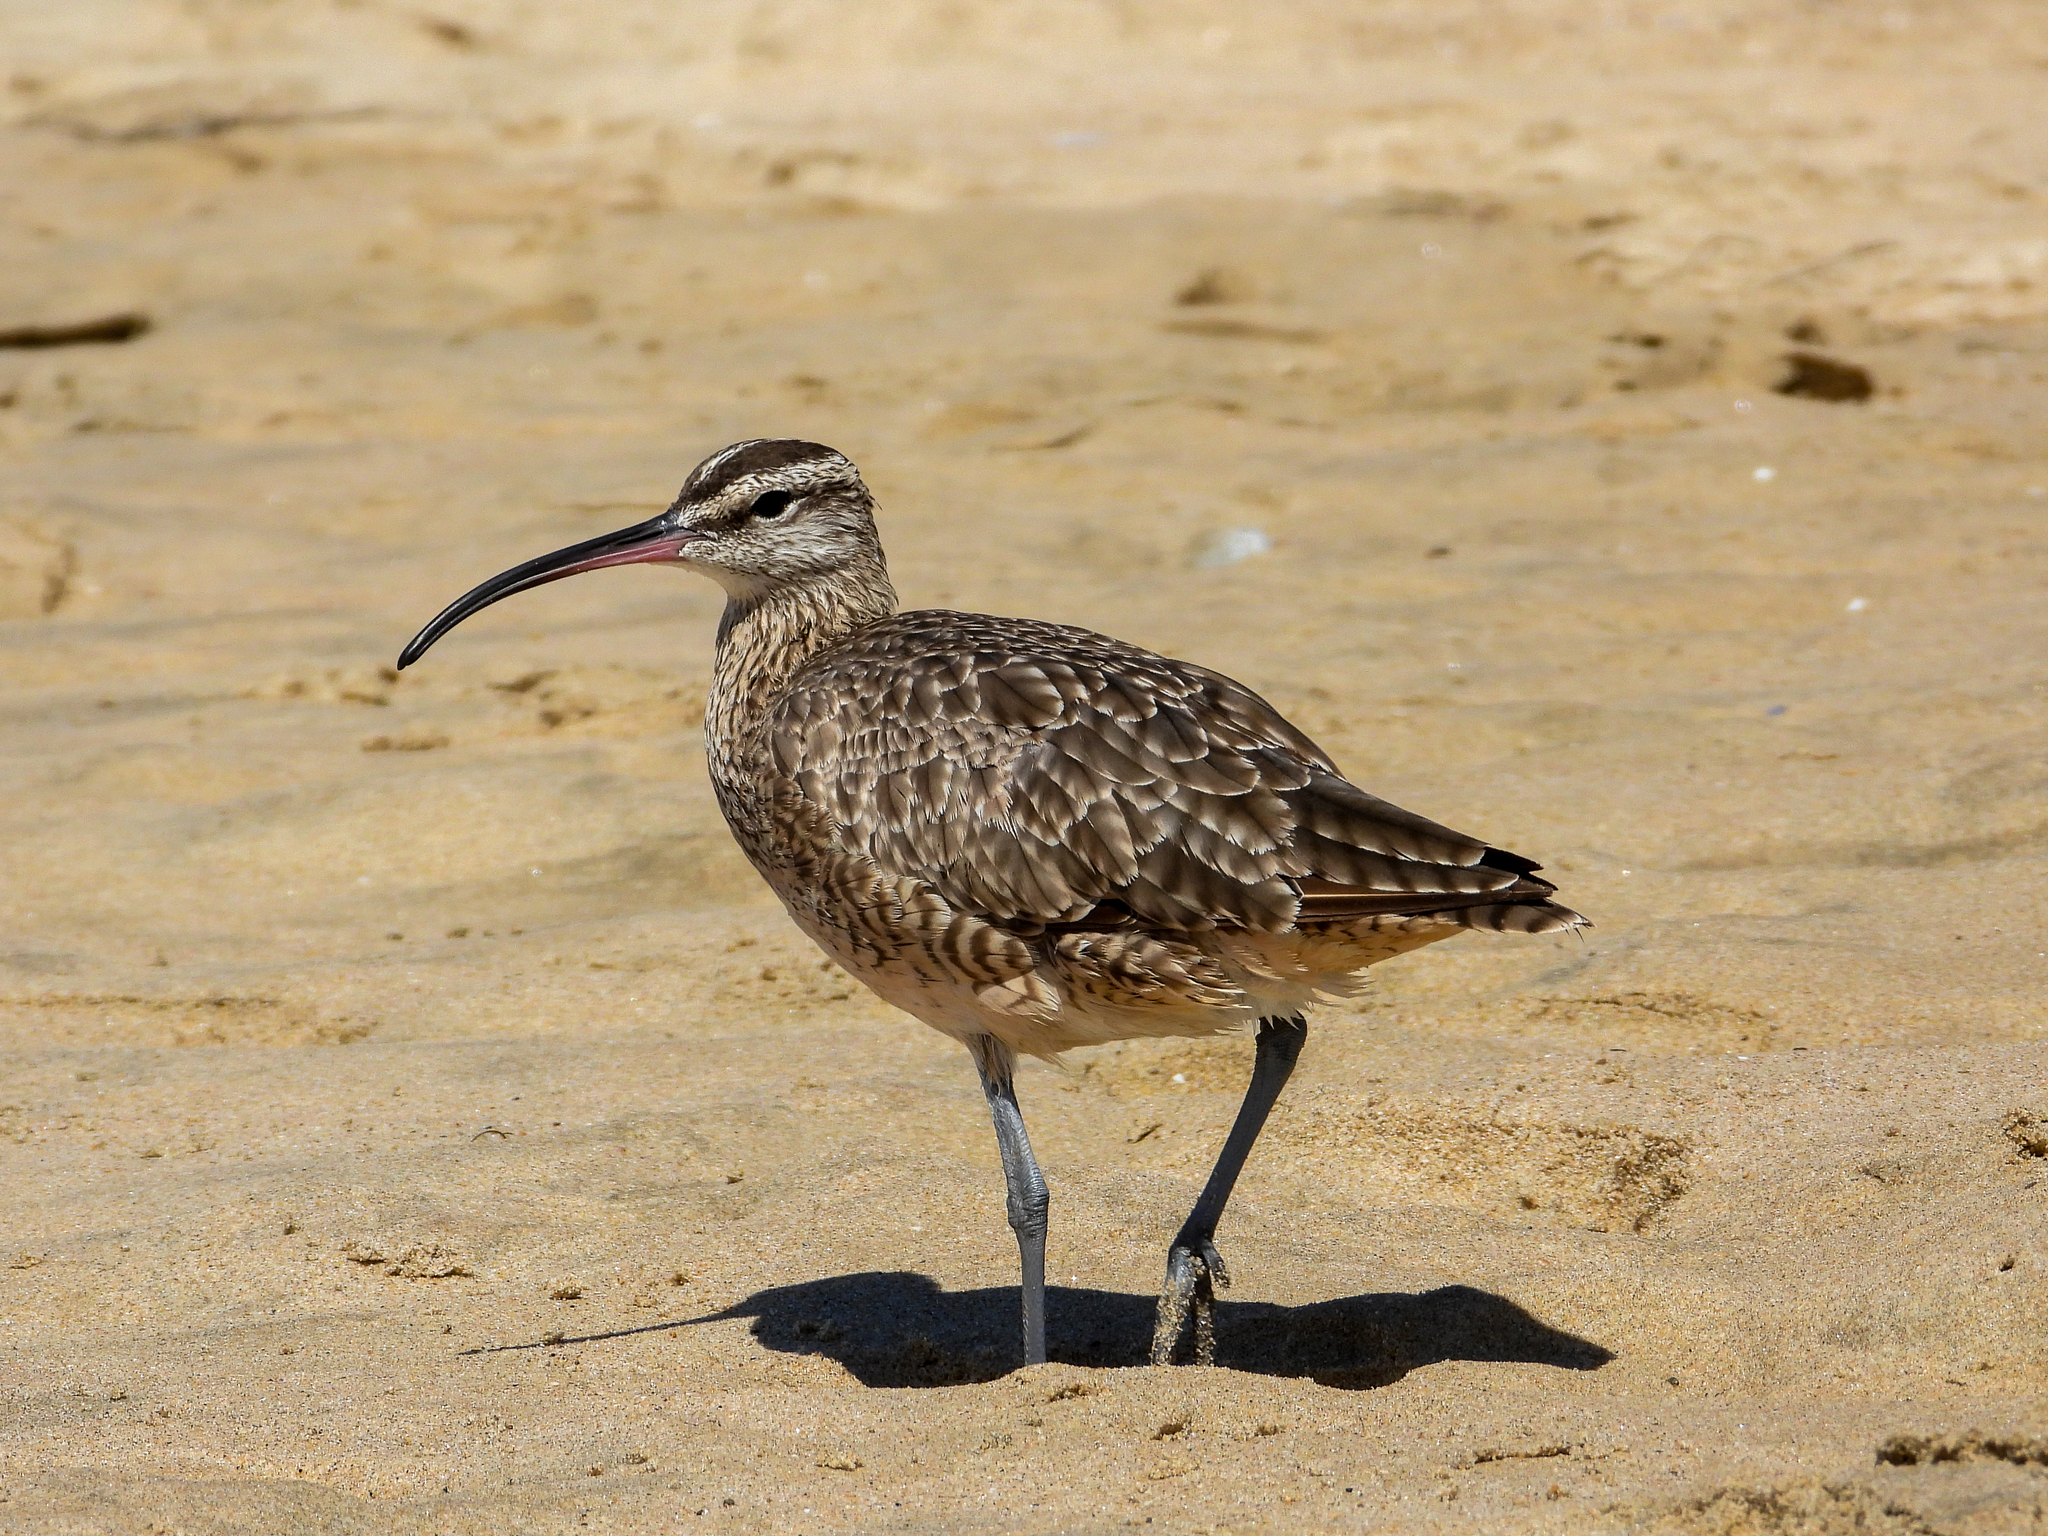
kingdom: Animalia
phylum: Chordata
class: Aves
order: Charadriiformes
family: Scolopacidae
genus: Numenius
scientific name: Numenius phaeopus
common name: Whimbrel
